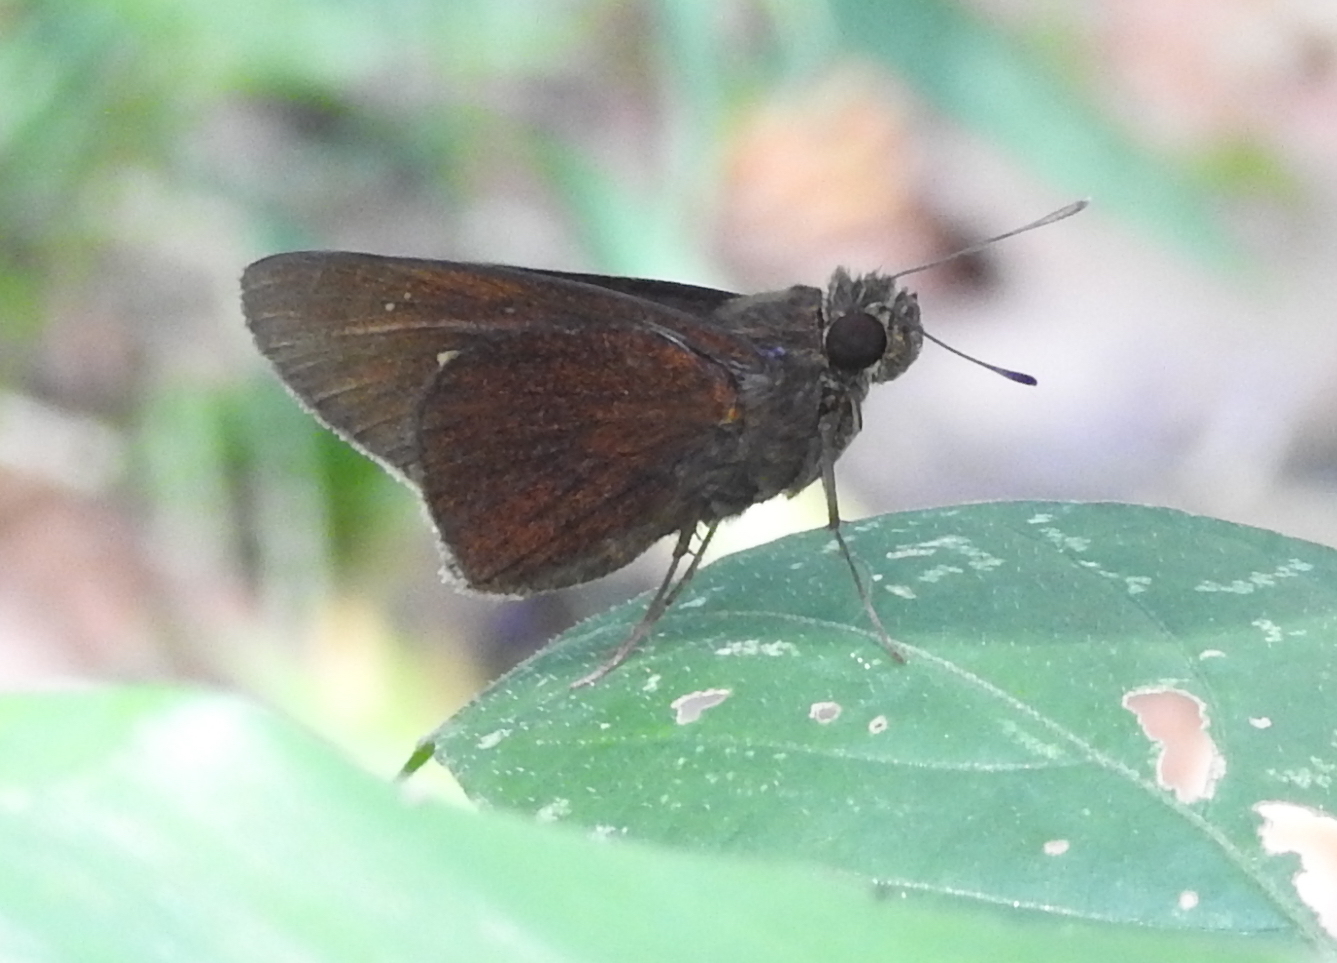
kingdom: Animalia
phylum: Arthropoda
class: Insecta
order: Lepidoptera
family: Hesperiidae
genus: Caltoris
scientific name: Caltoris cormasa
